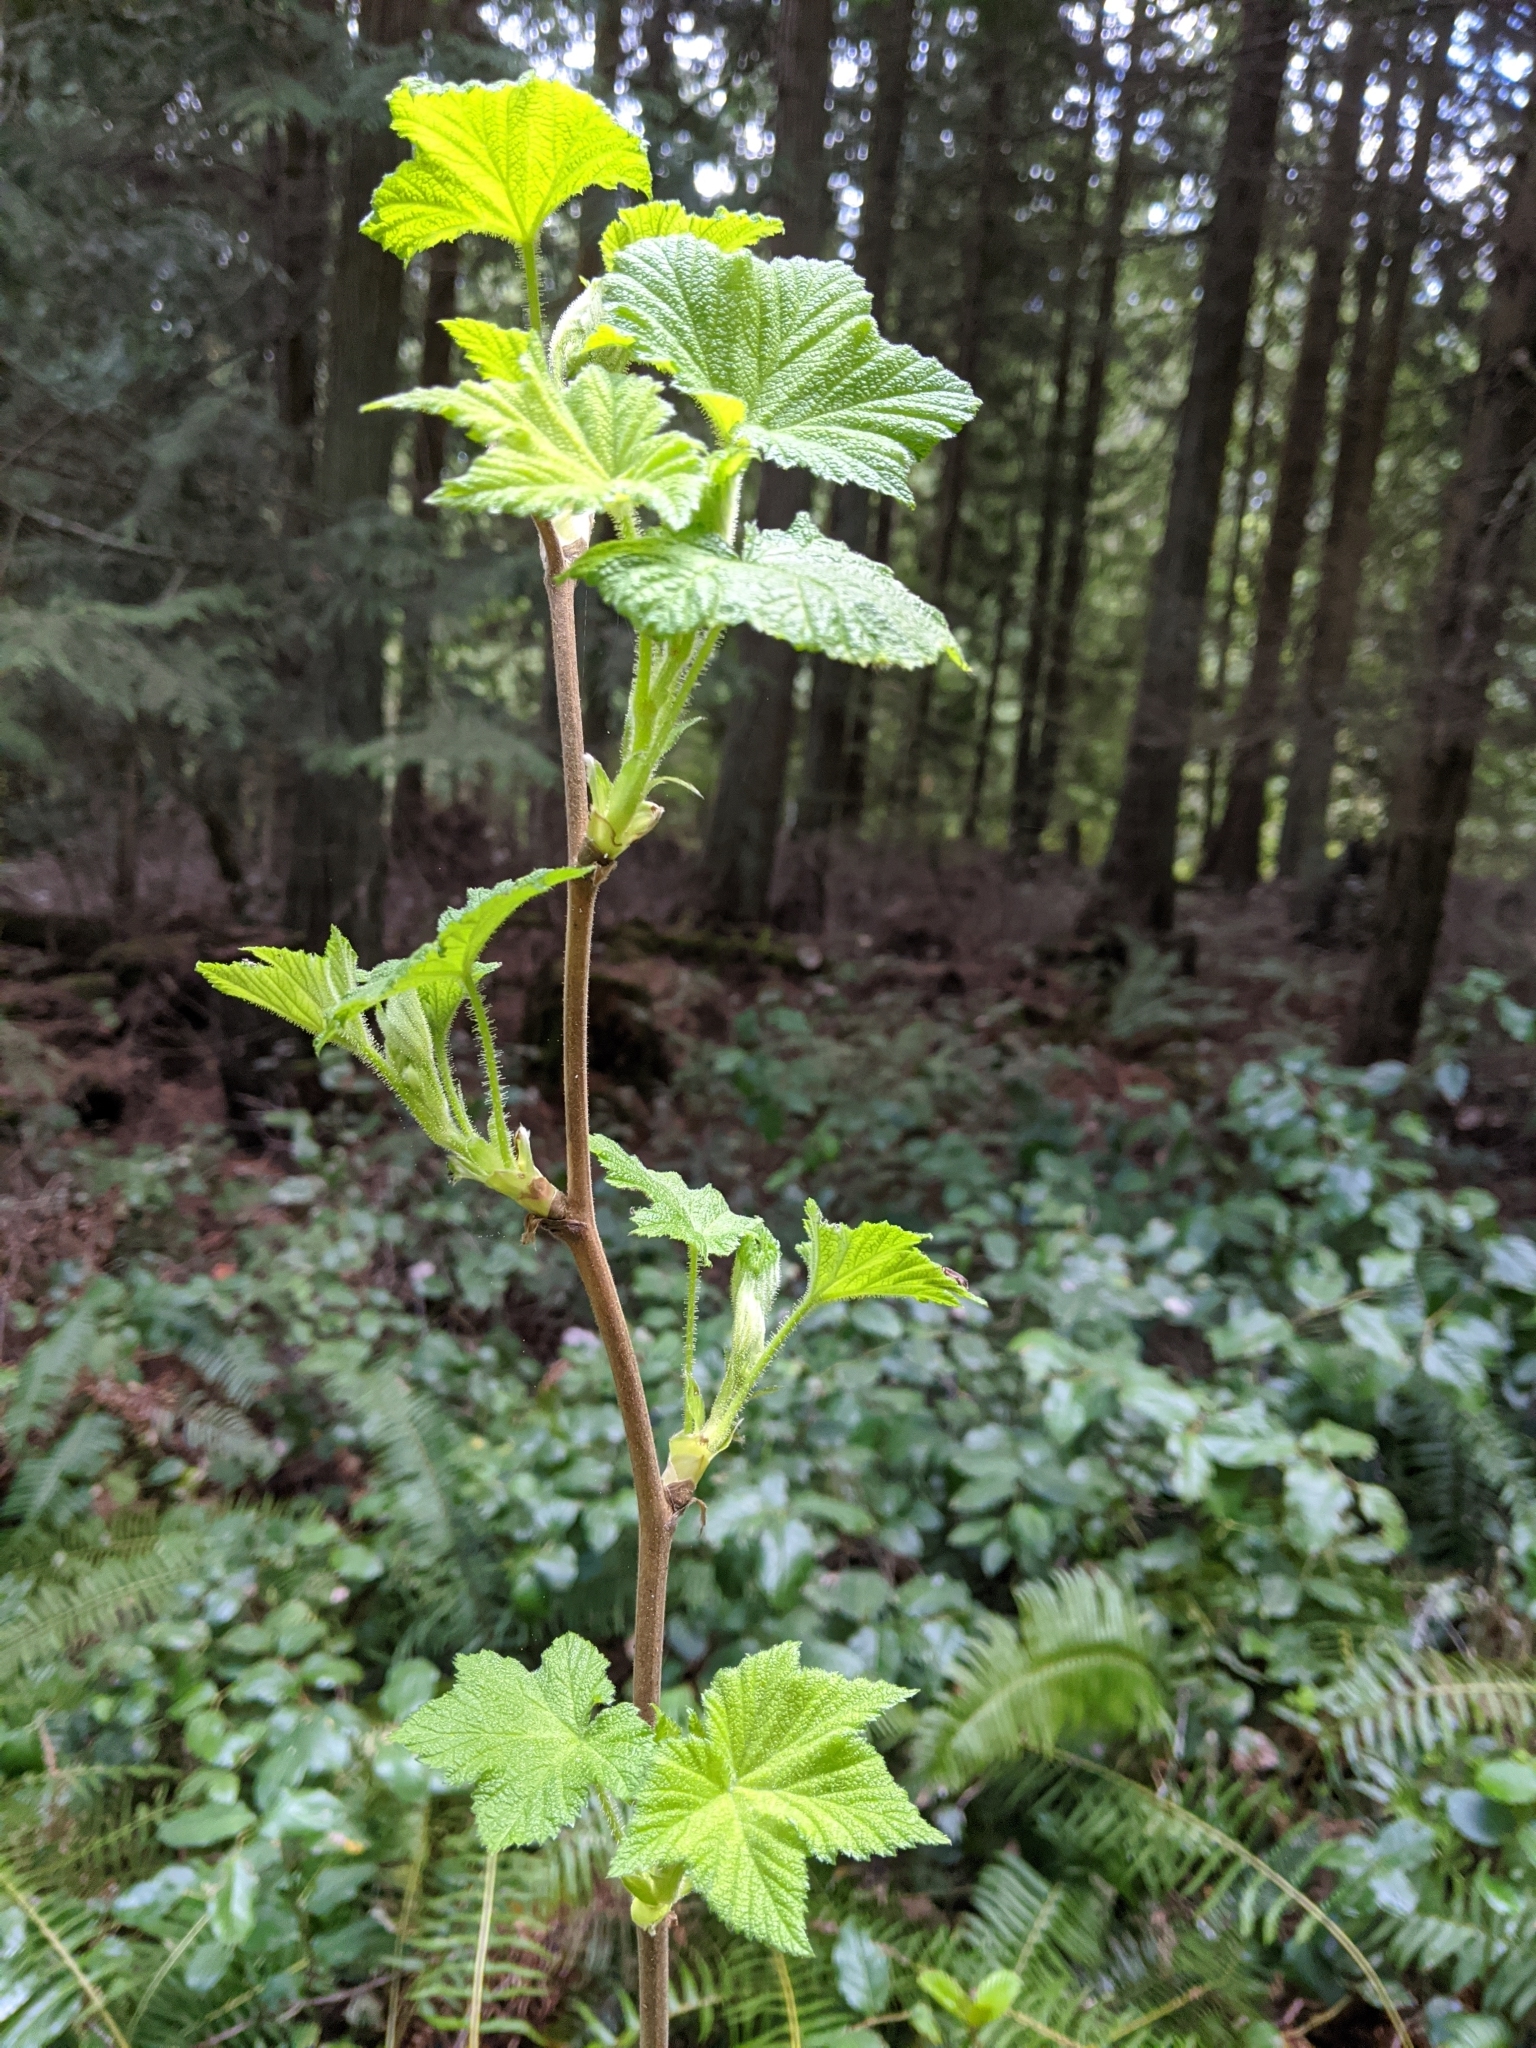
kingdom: Plantae
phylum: Tracheophyta
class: Magnoliopsida
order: Rosales
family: Rosaceae
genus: Rubus
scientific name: Rubus parviflorus
